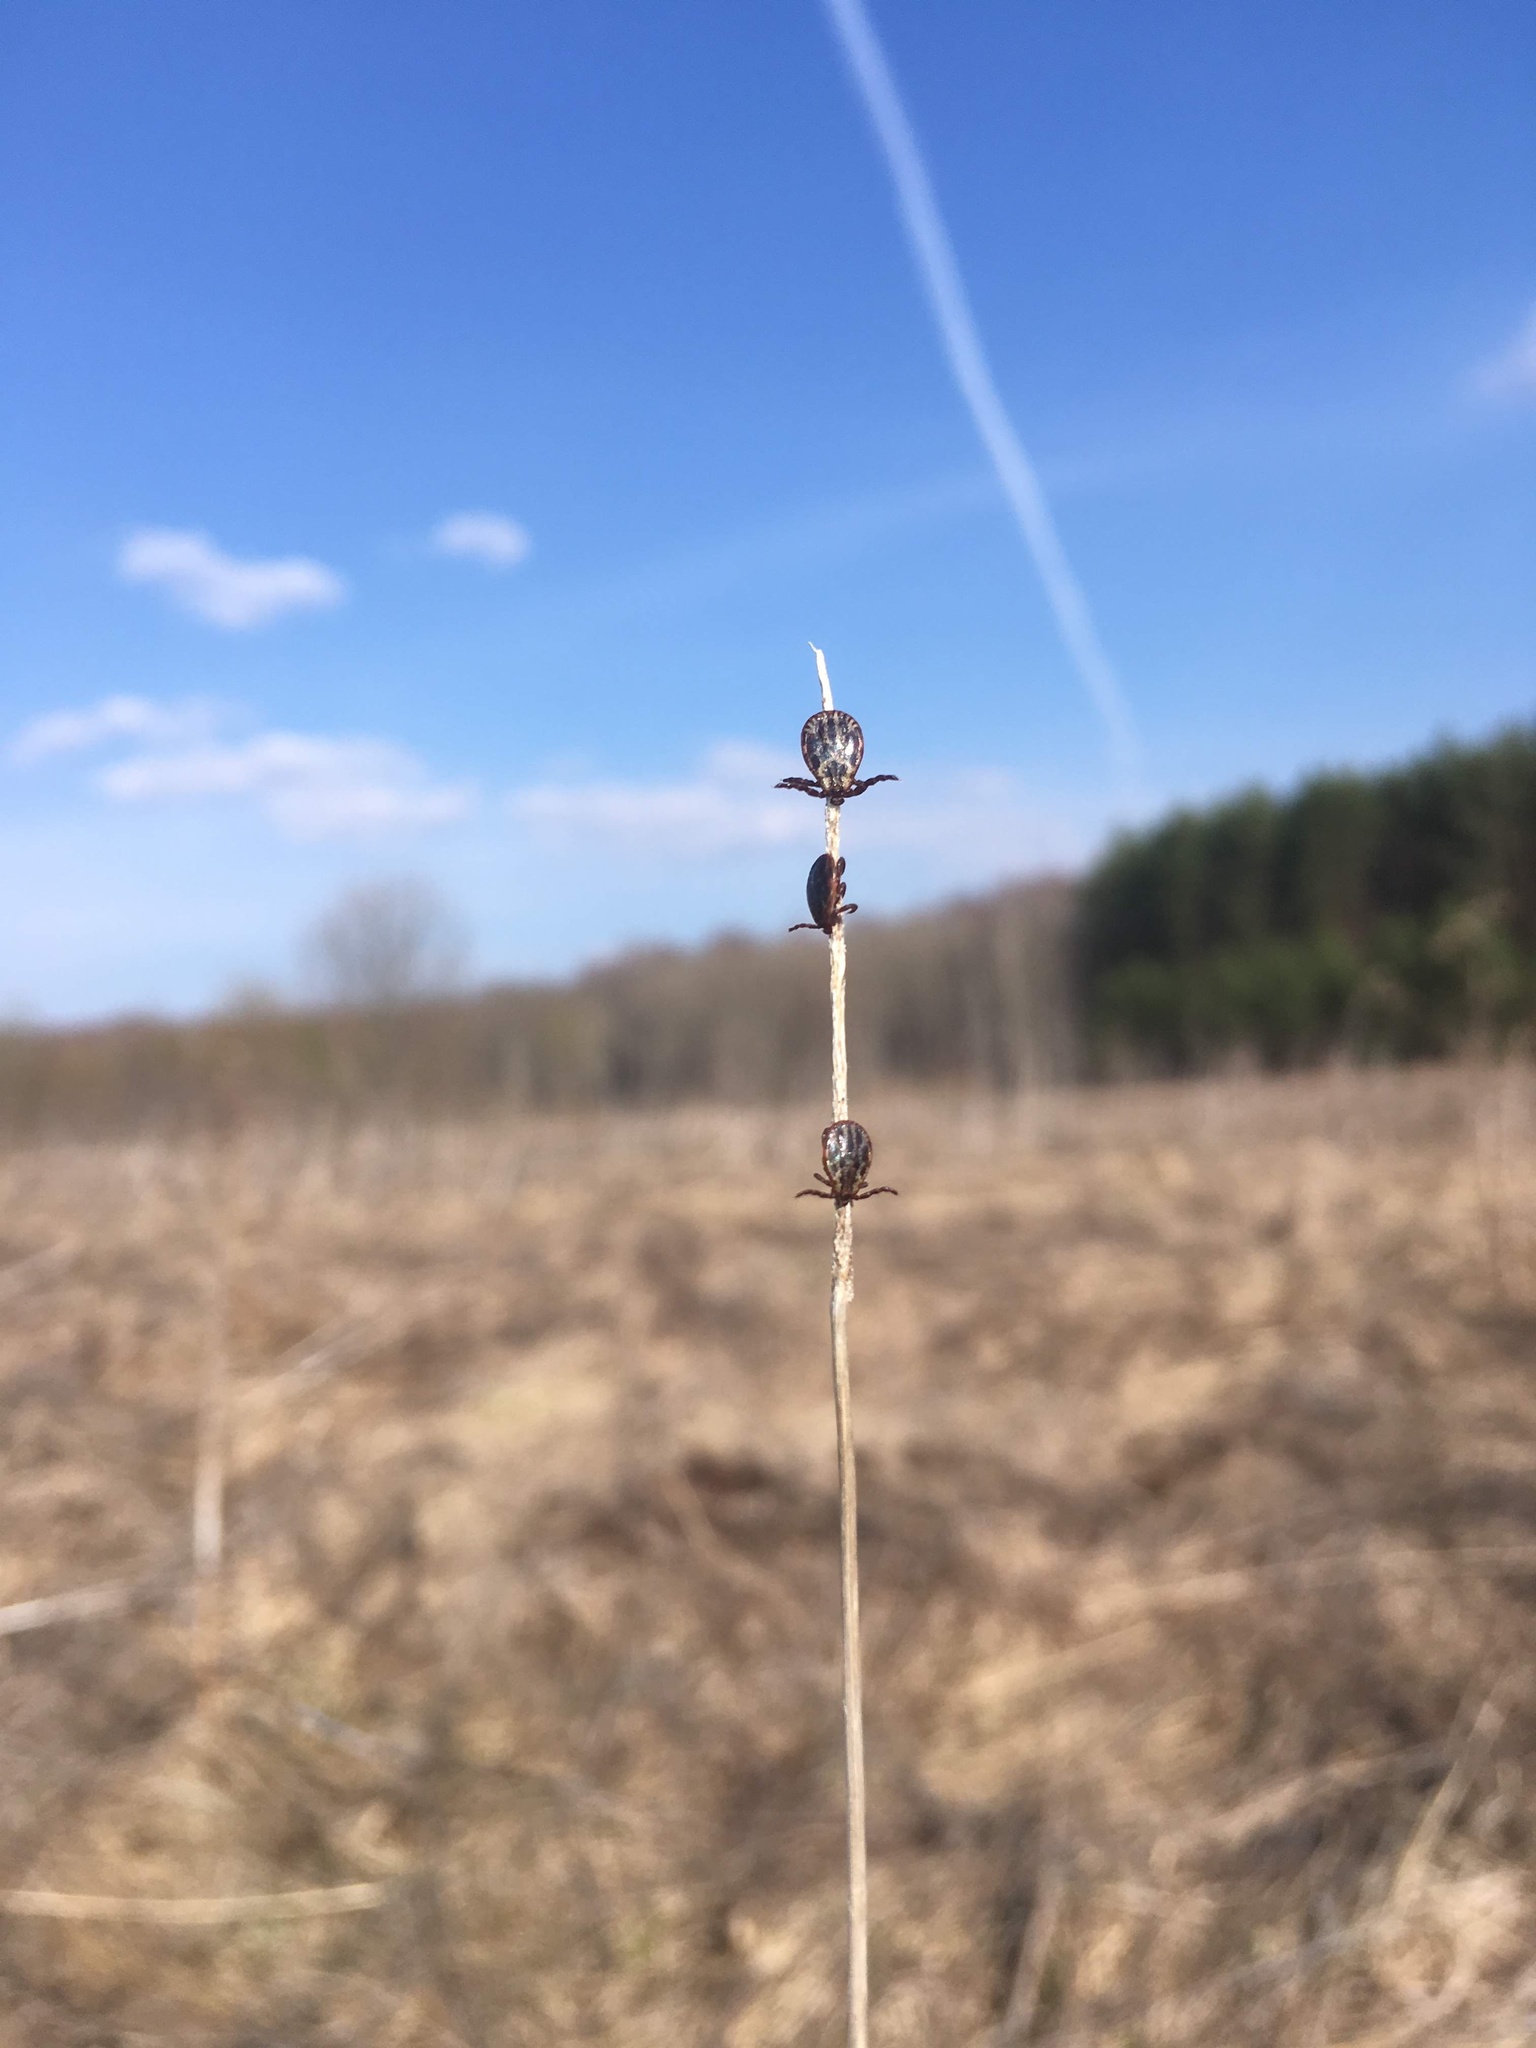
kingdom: Animalia
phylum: Arthropoda
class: Arachnida
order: Ixodida
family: Ixodidae
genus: Dermacentor
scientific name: Dermacentor reticulatus
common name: Ornate cow tick
